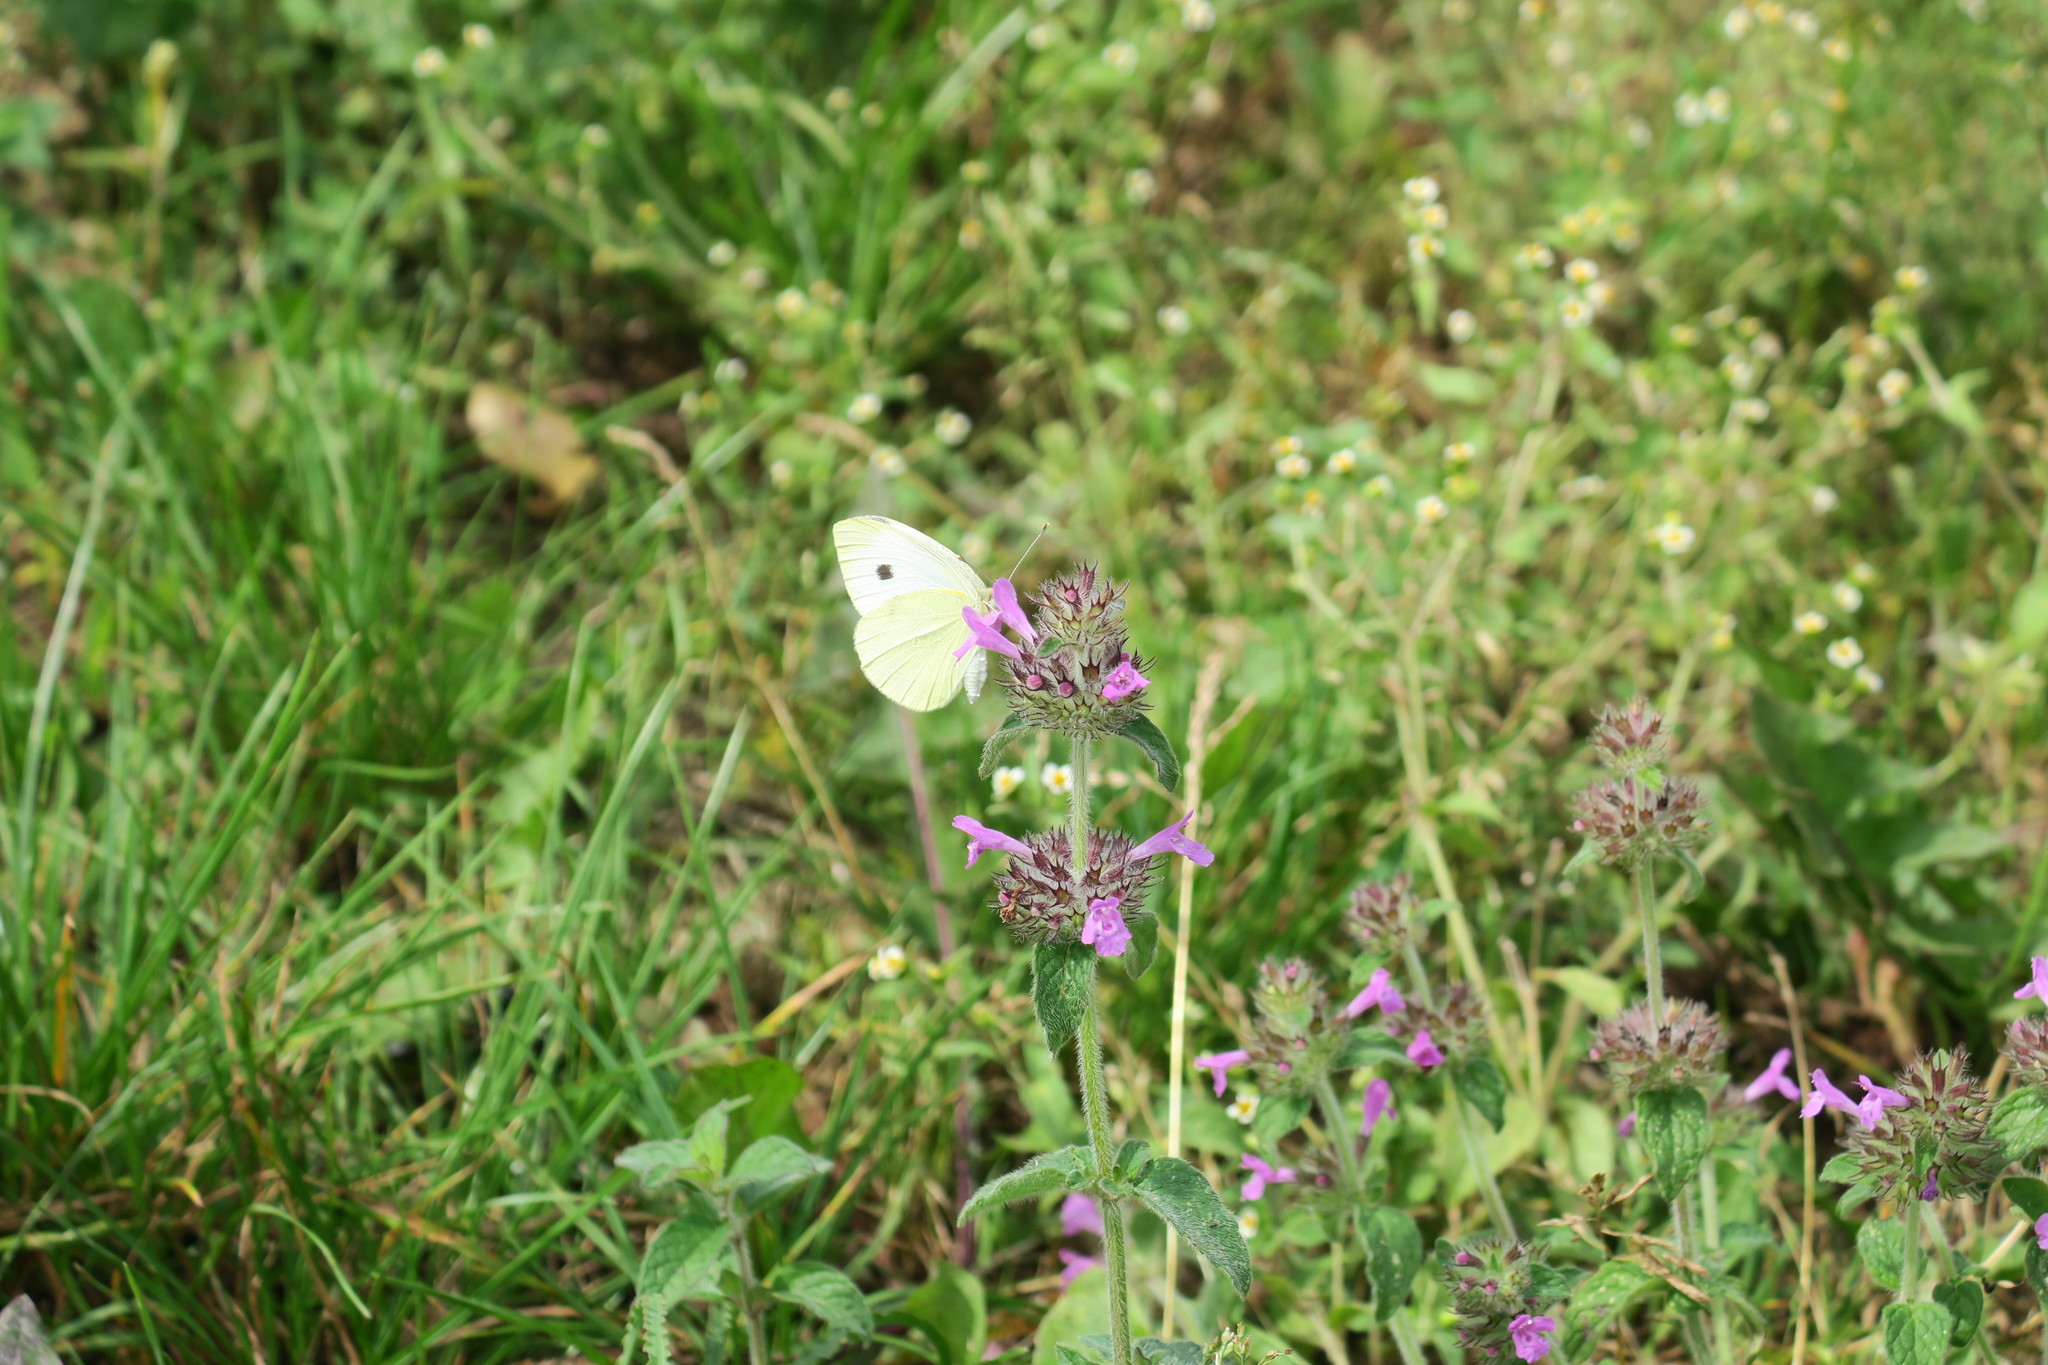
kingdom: Animalia
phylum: Arthropoda
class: Insecta
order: Lepidoptera
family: Pieridae
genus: Pieris
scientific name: Pieris rapae
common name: Small white
